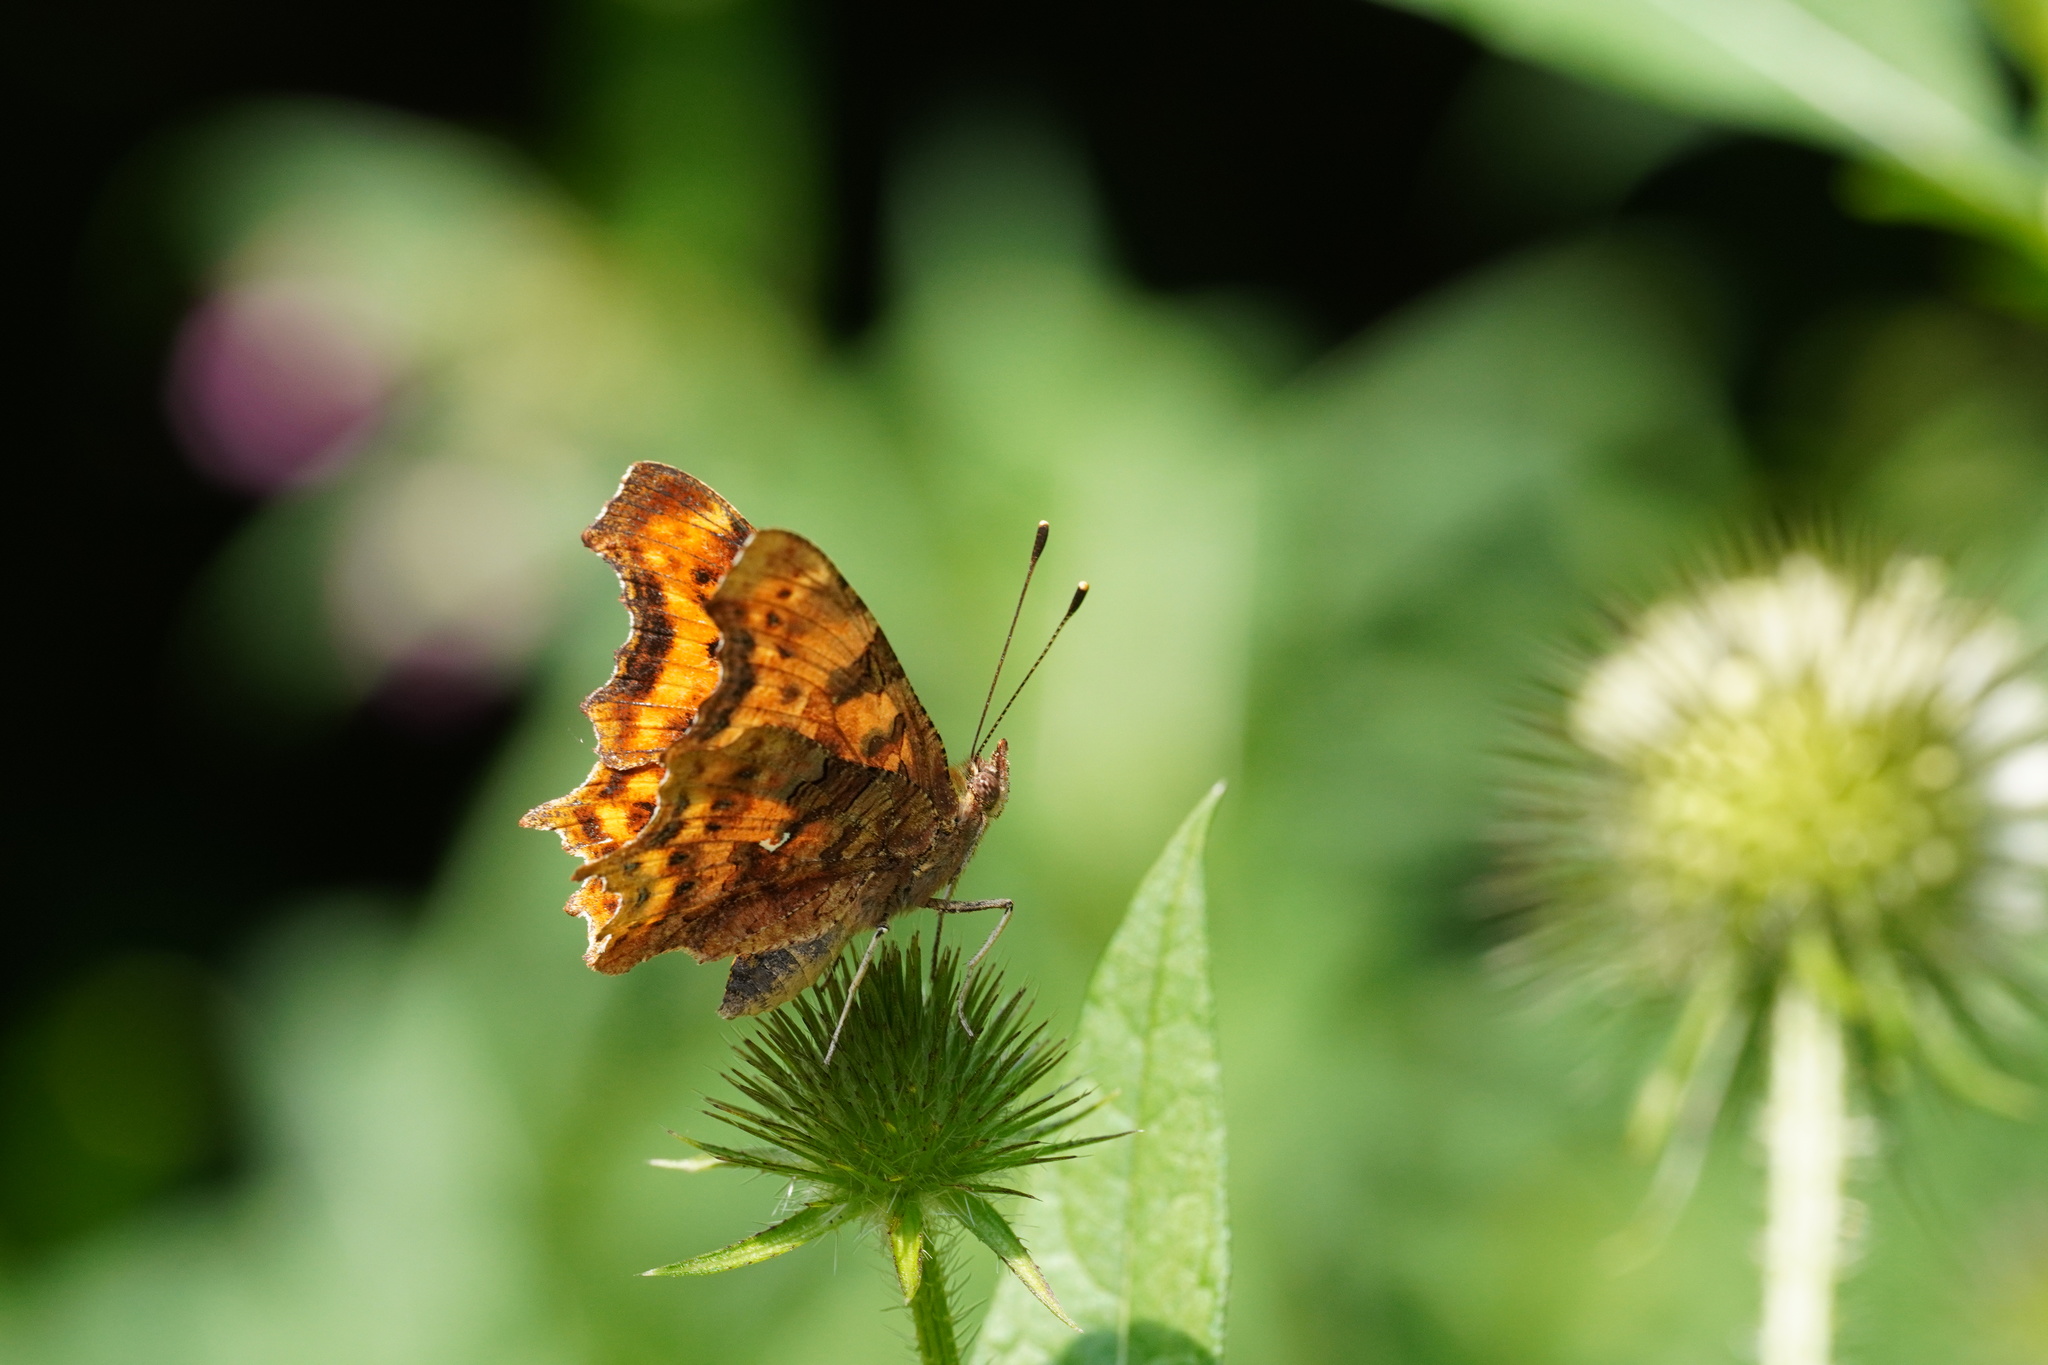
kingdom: Animalia
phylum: Arthropoda
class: Insecta
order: Lepidoptera
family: Nymphalidae
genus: Polygonia
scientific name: Polygonia c-album
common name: Comma
